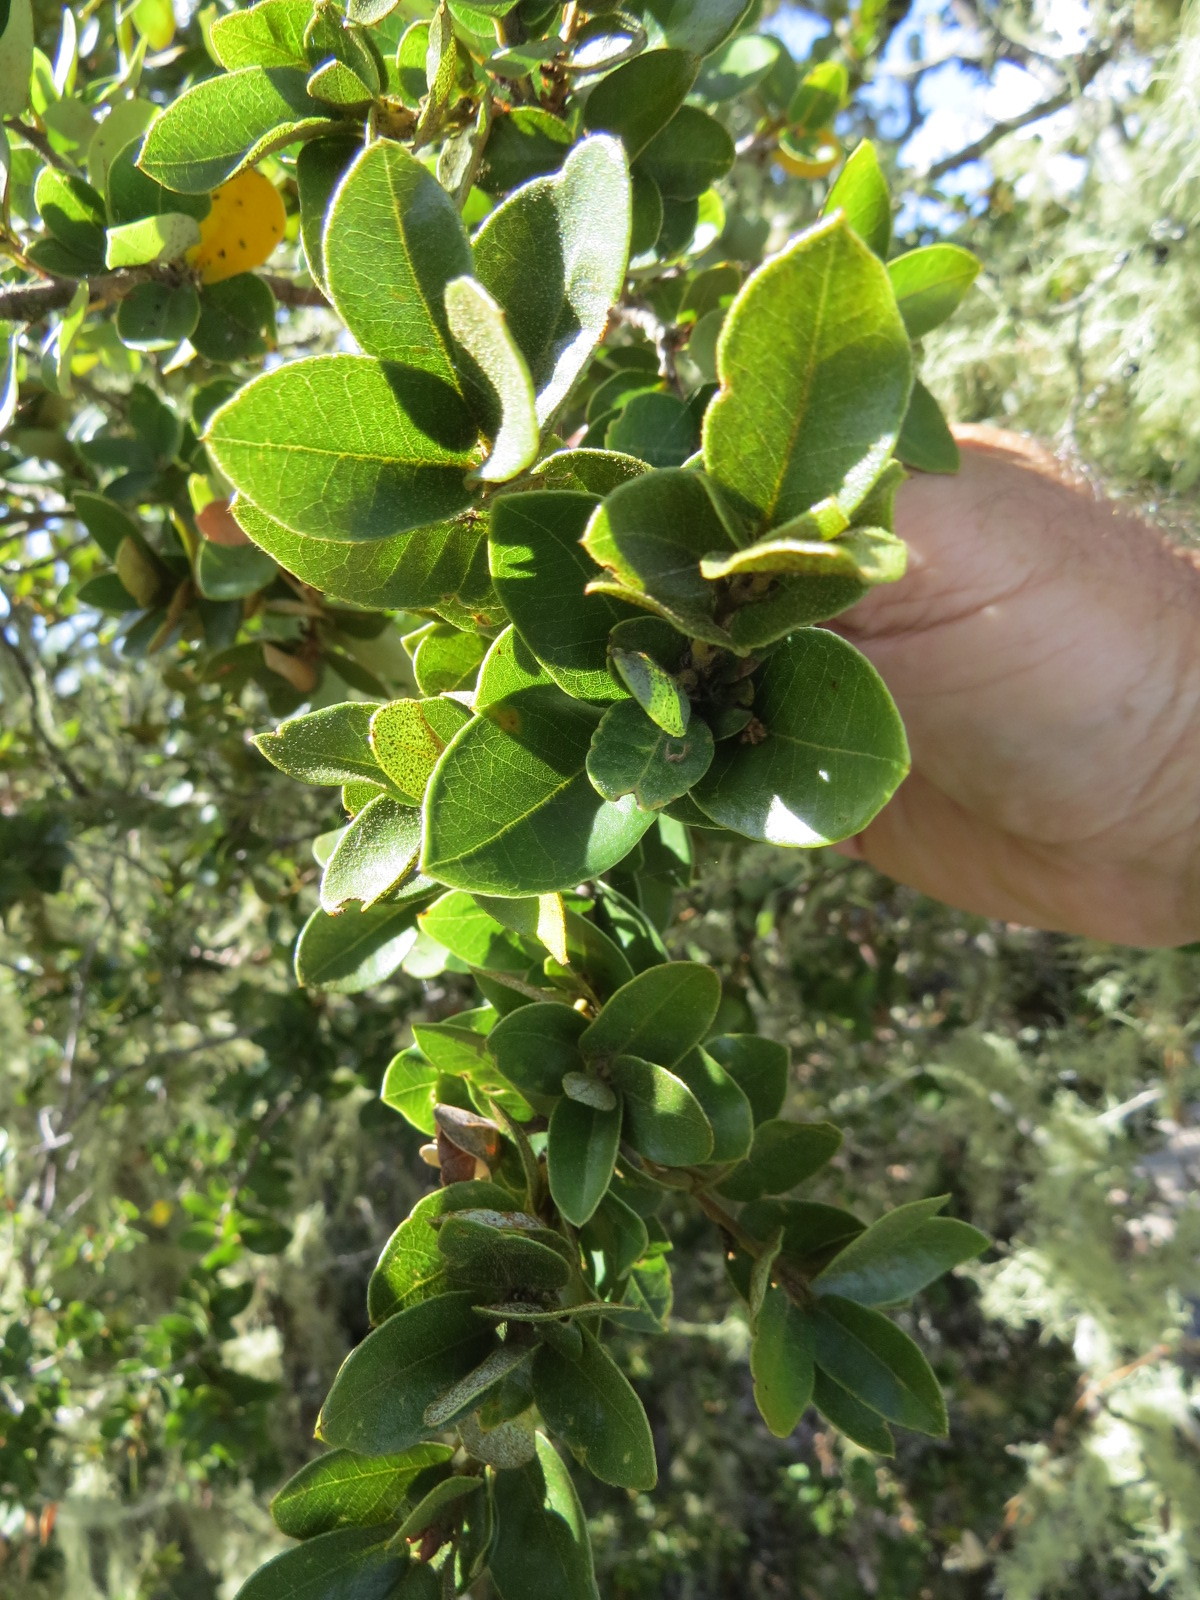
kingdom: Plantae
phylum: Tracheophyta
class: Magnoliopsida
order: Fagales
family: Fagaceae
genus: Quercus
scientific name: Quercus chrysolepis
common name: Canyon live oak
